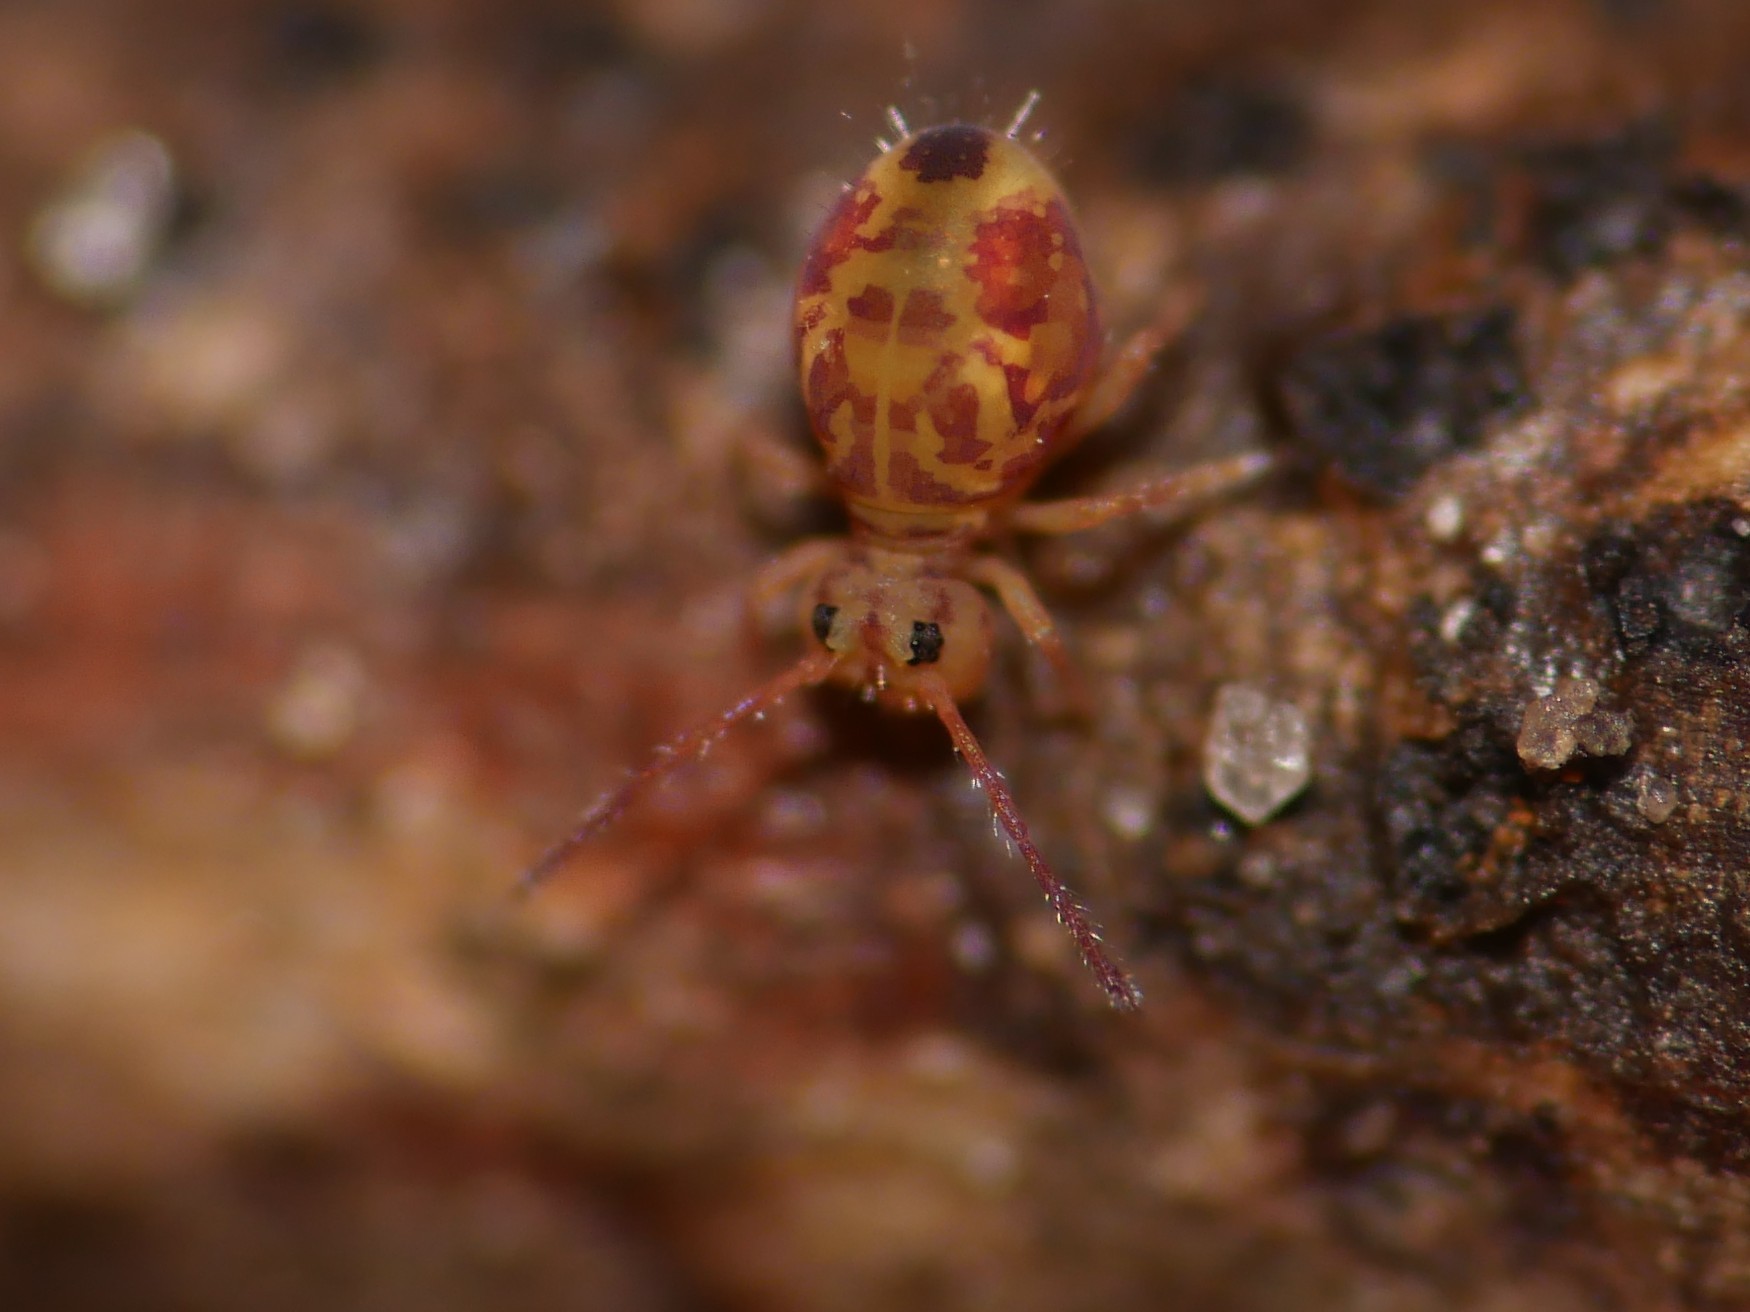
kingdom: Animalia
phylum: Arthropoda
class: Collembola
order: Symphypleona
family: Dicyrtomidae
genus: Dicyrtomina
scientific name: Dicyrtomina ornata
